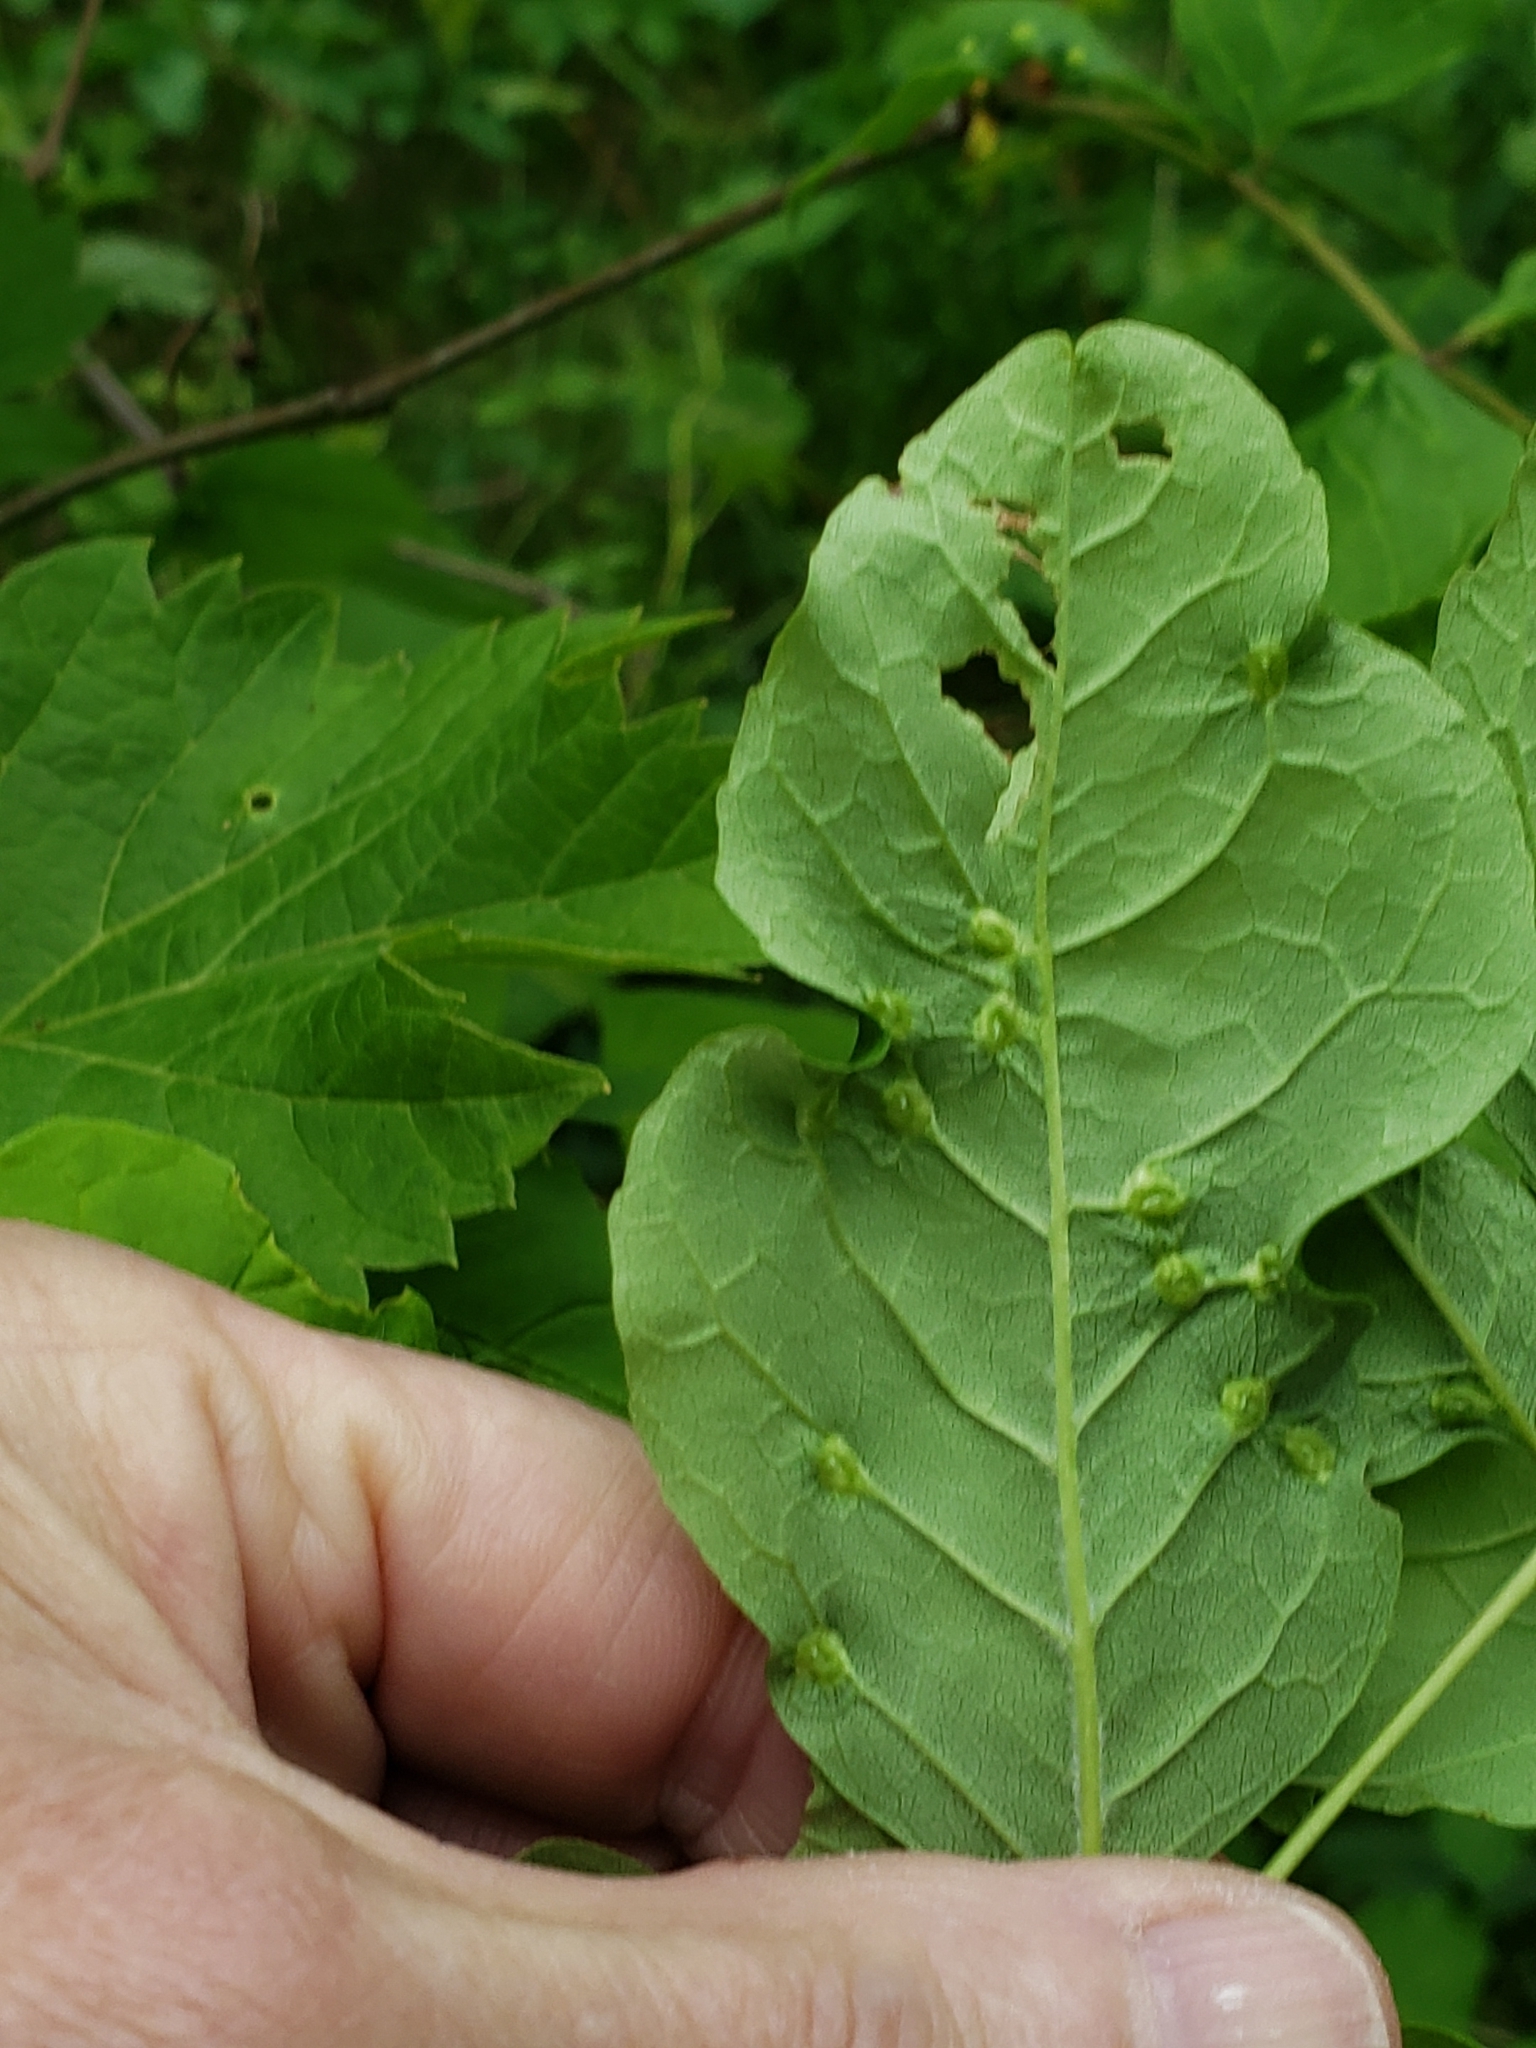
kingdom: Animalia
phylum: Arthropoda
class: Arachnida
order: Trombidiformes
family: Eriophyidae
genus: Aceria
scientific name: Aceria fraxinicola
